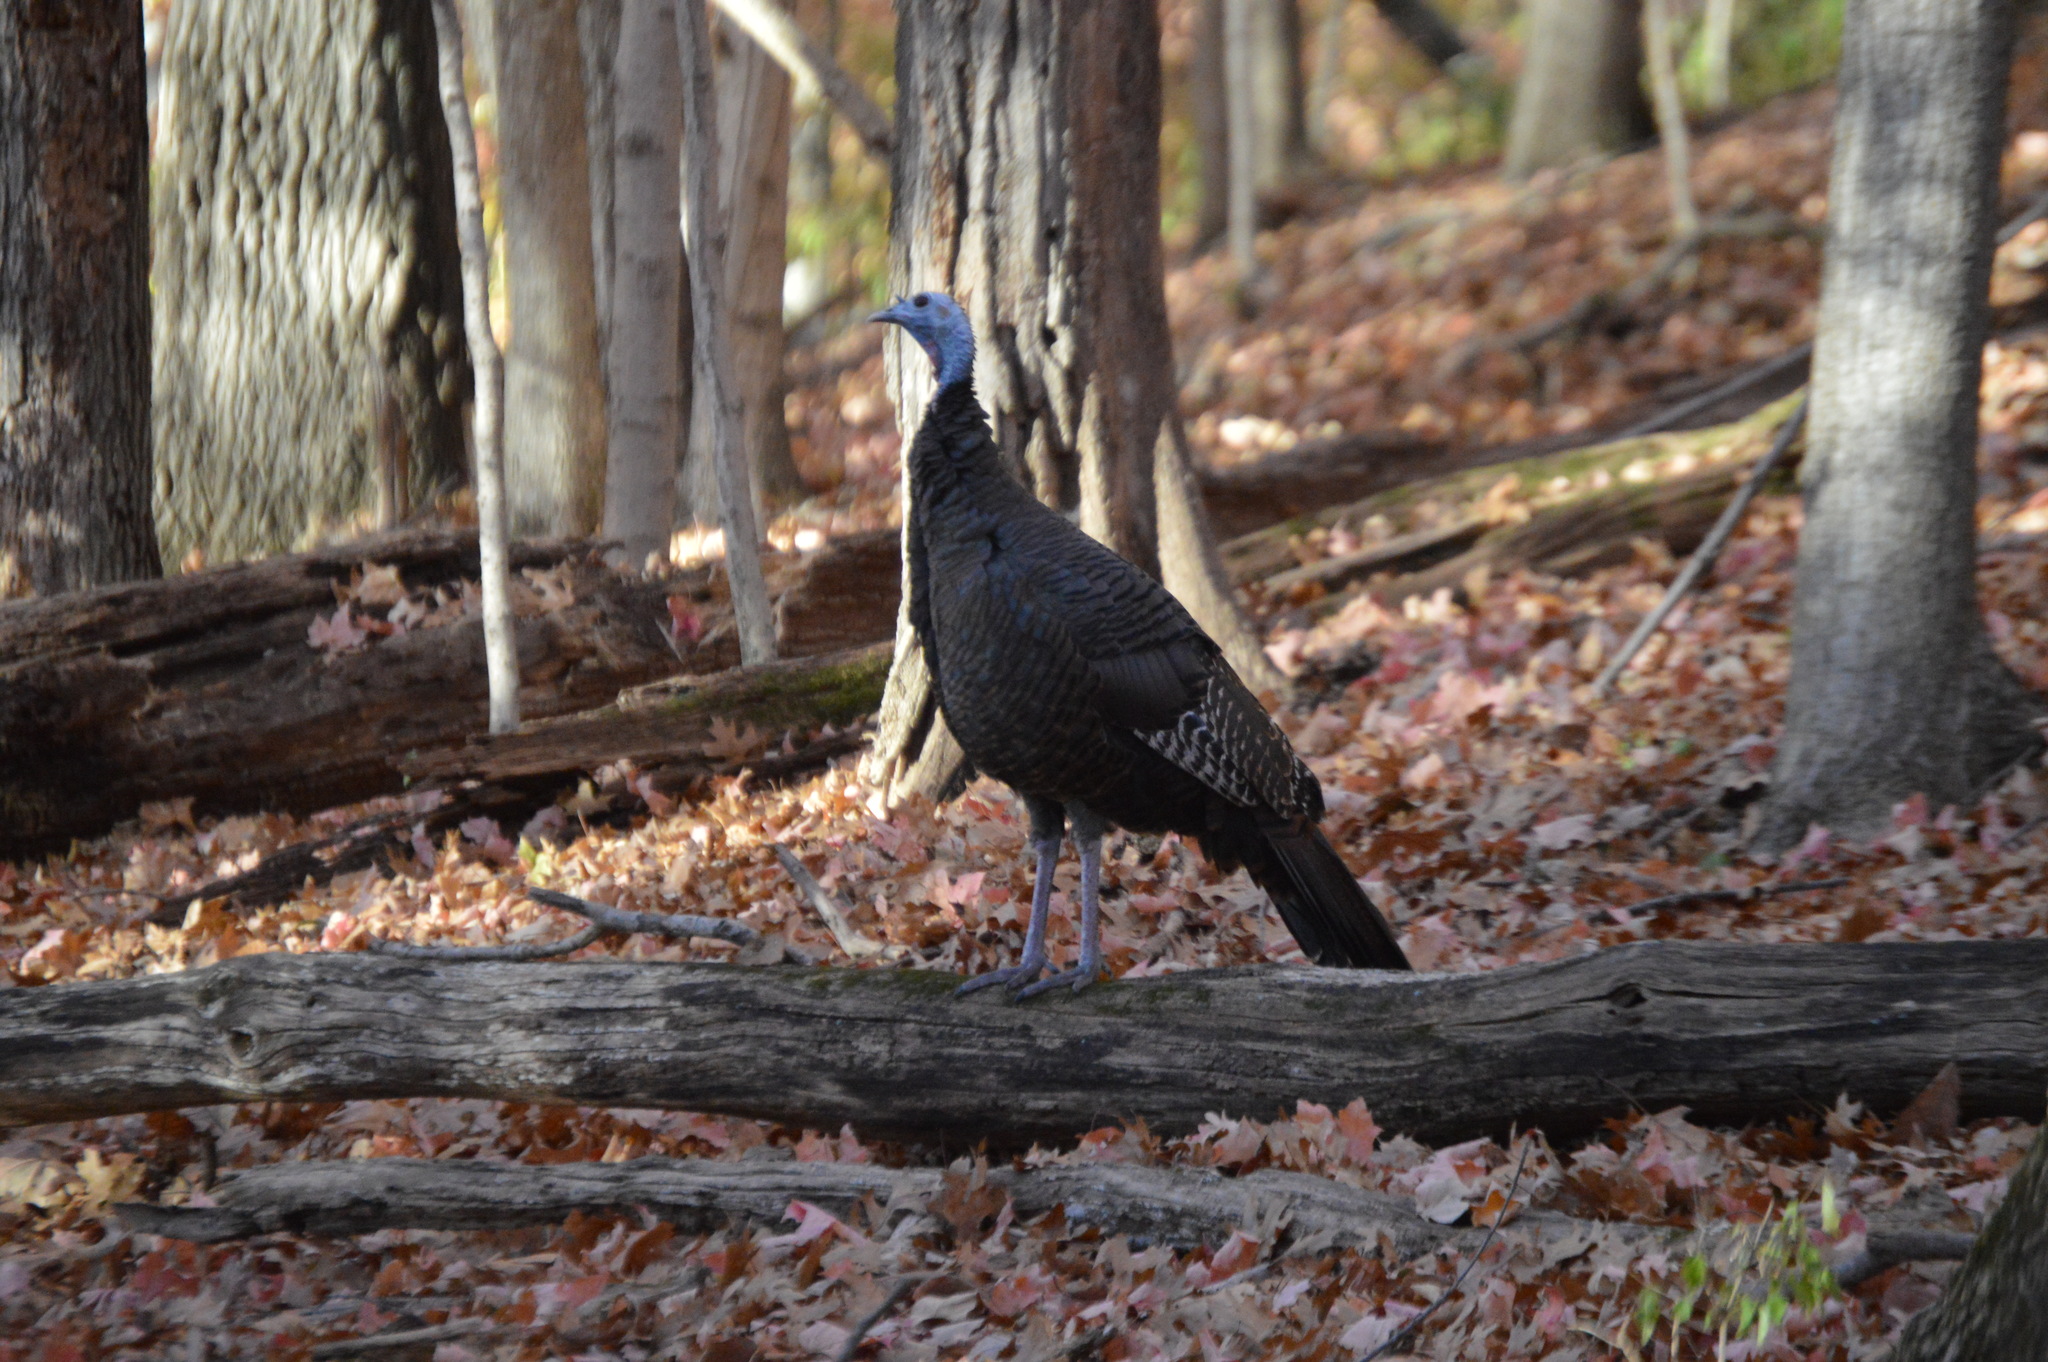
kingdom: Animalia
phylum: Chordata
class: Aves
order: Galliformes
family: Phasianidae
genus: Meleagris
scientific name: Meleagris gallopavo
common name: Wild turkey
